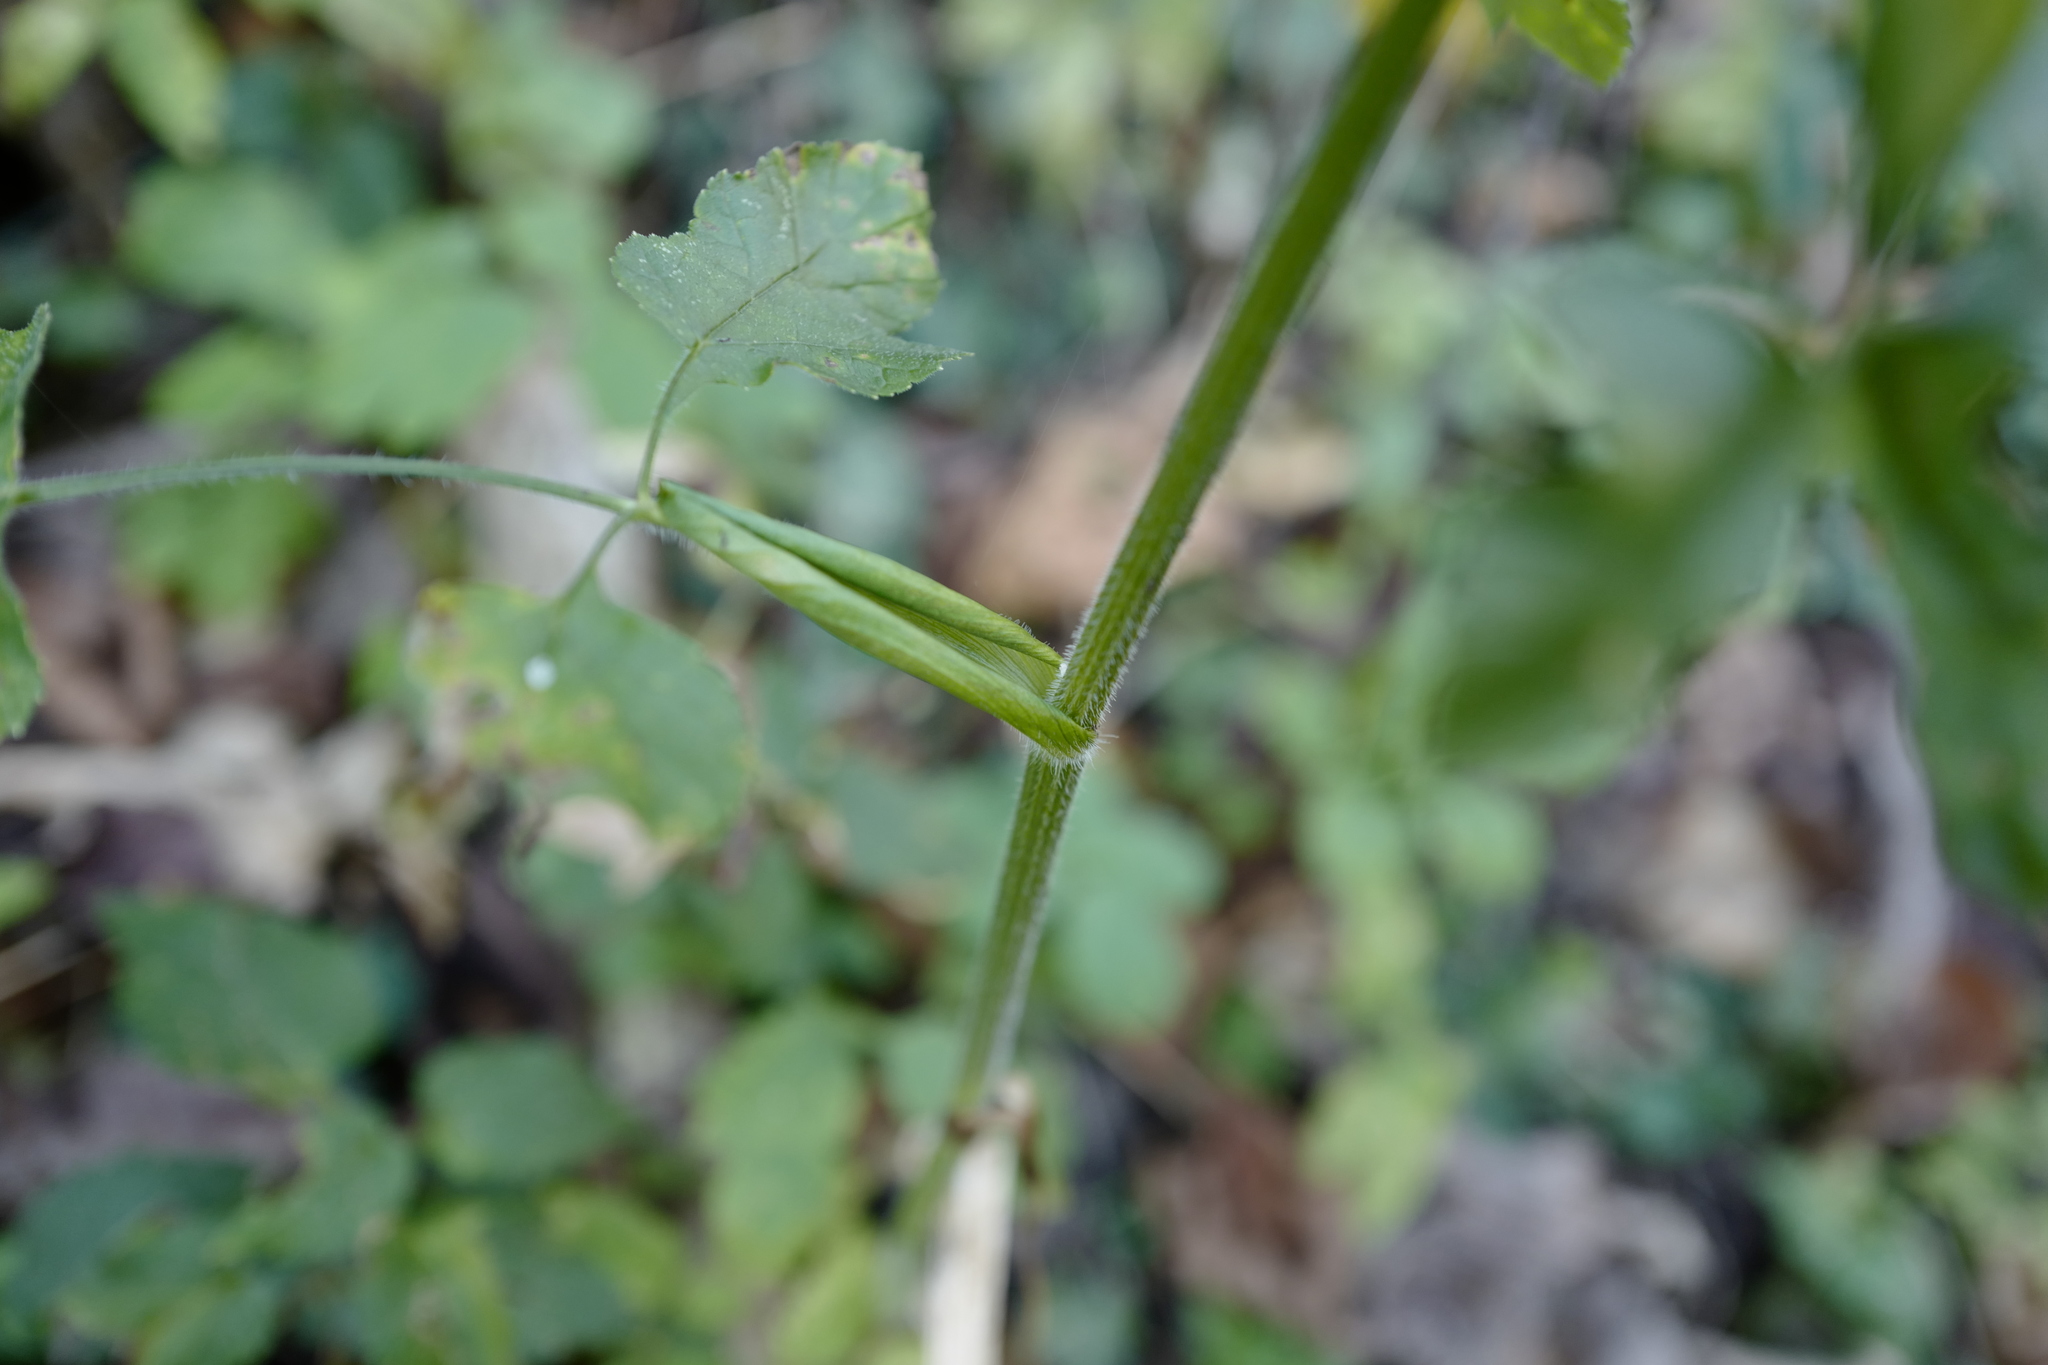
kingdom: Plantae
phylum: Tracheophyta
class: Magnoliopsida
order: Apiales
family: Apiaceae
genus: Heracleum
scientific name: Heracleum sphondylium
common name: Hogweed
